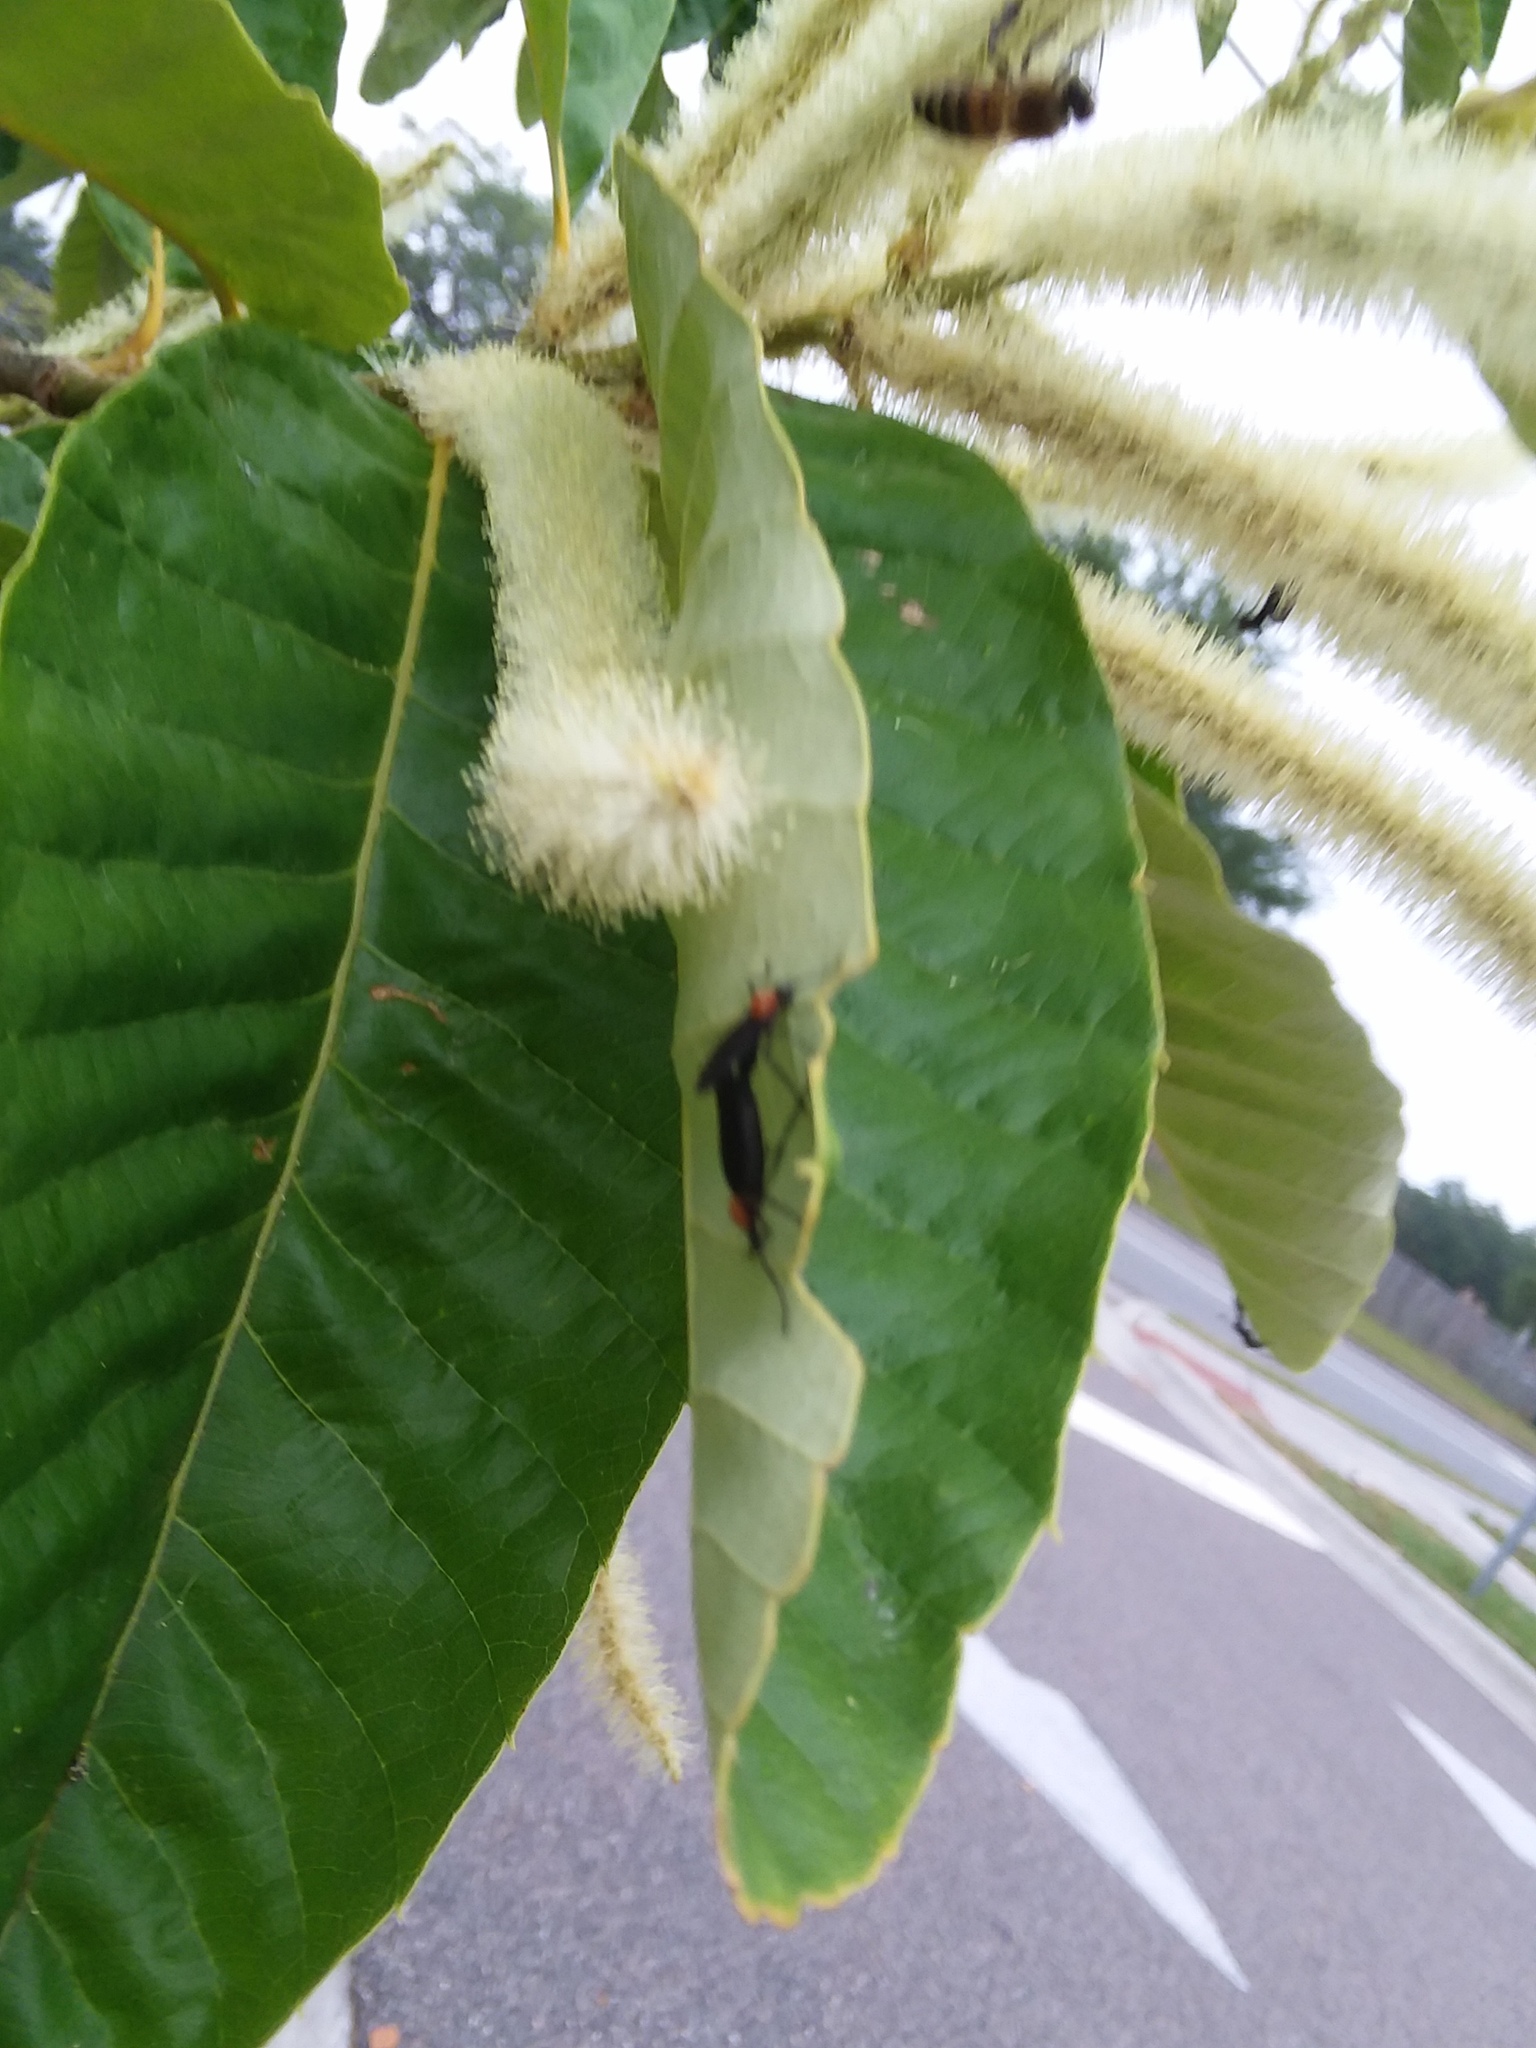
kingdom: Animalia
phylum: Arthropoda
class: Insecta
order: Diptera
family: Bibionidae
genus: Plecia
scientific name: Plecia nearctica
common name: March fly
